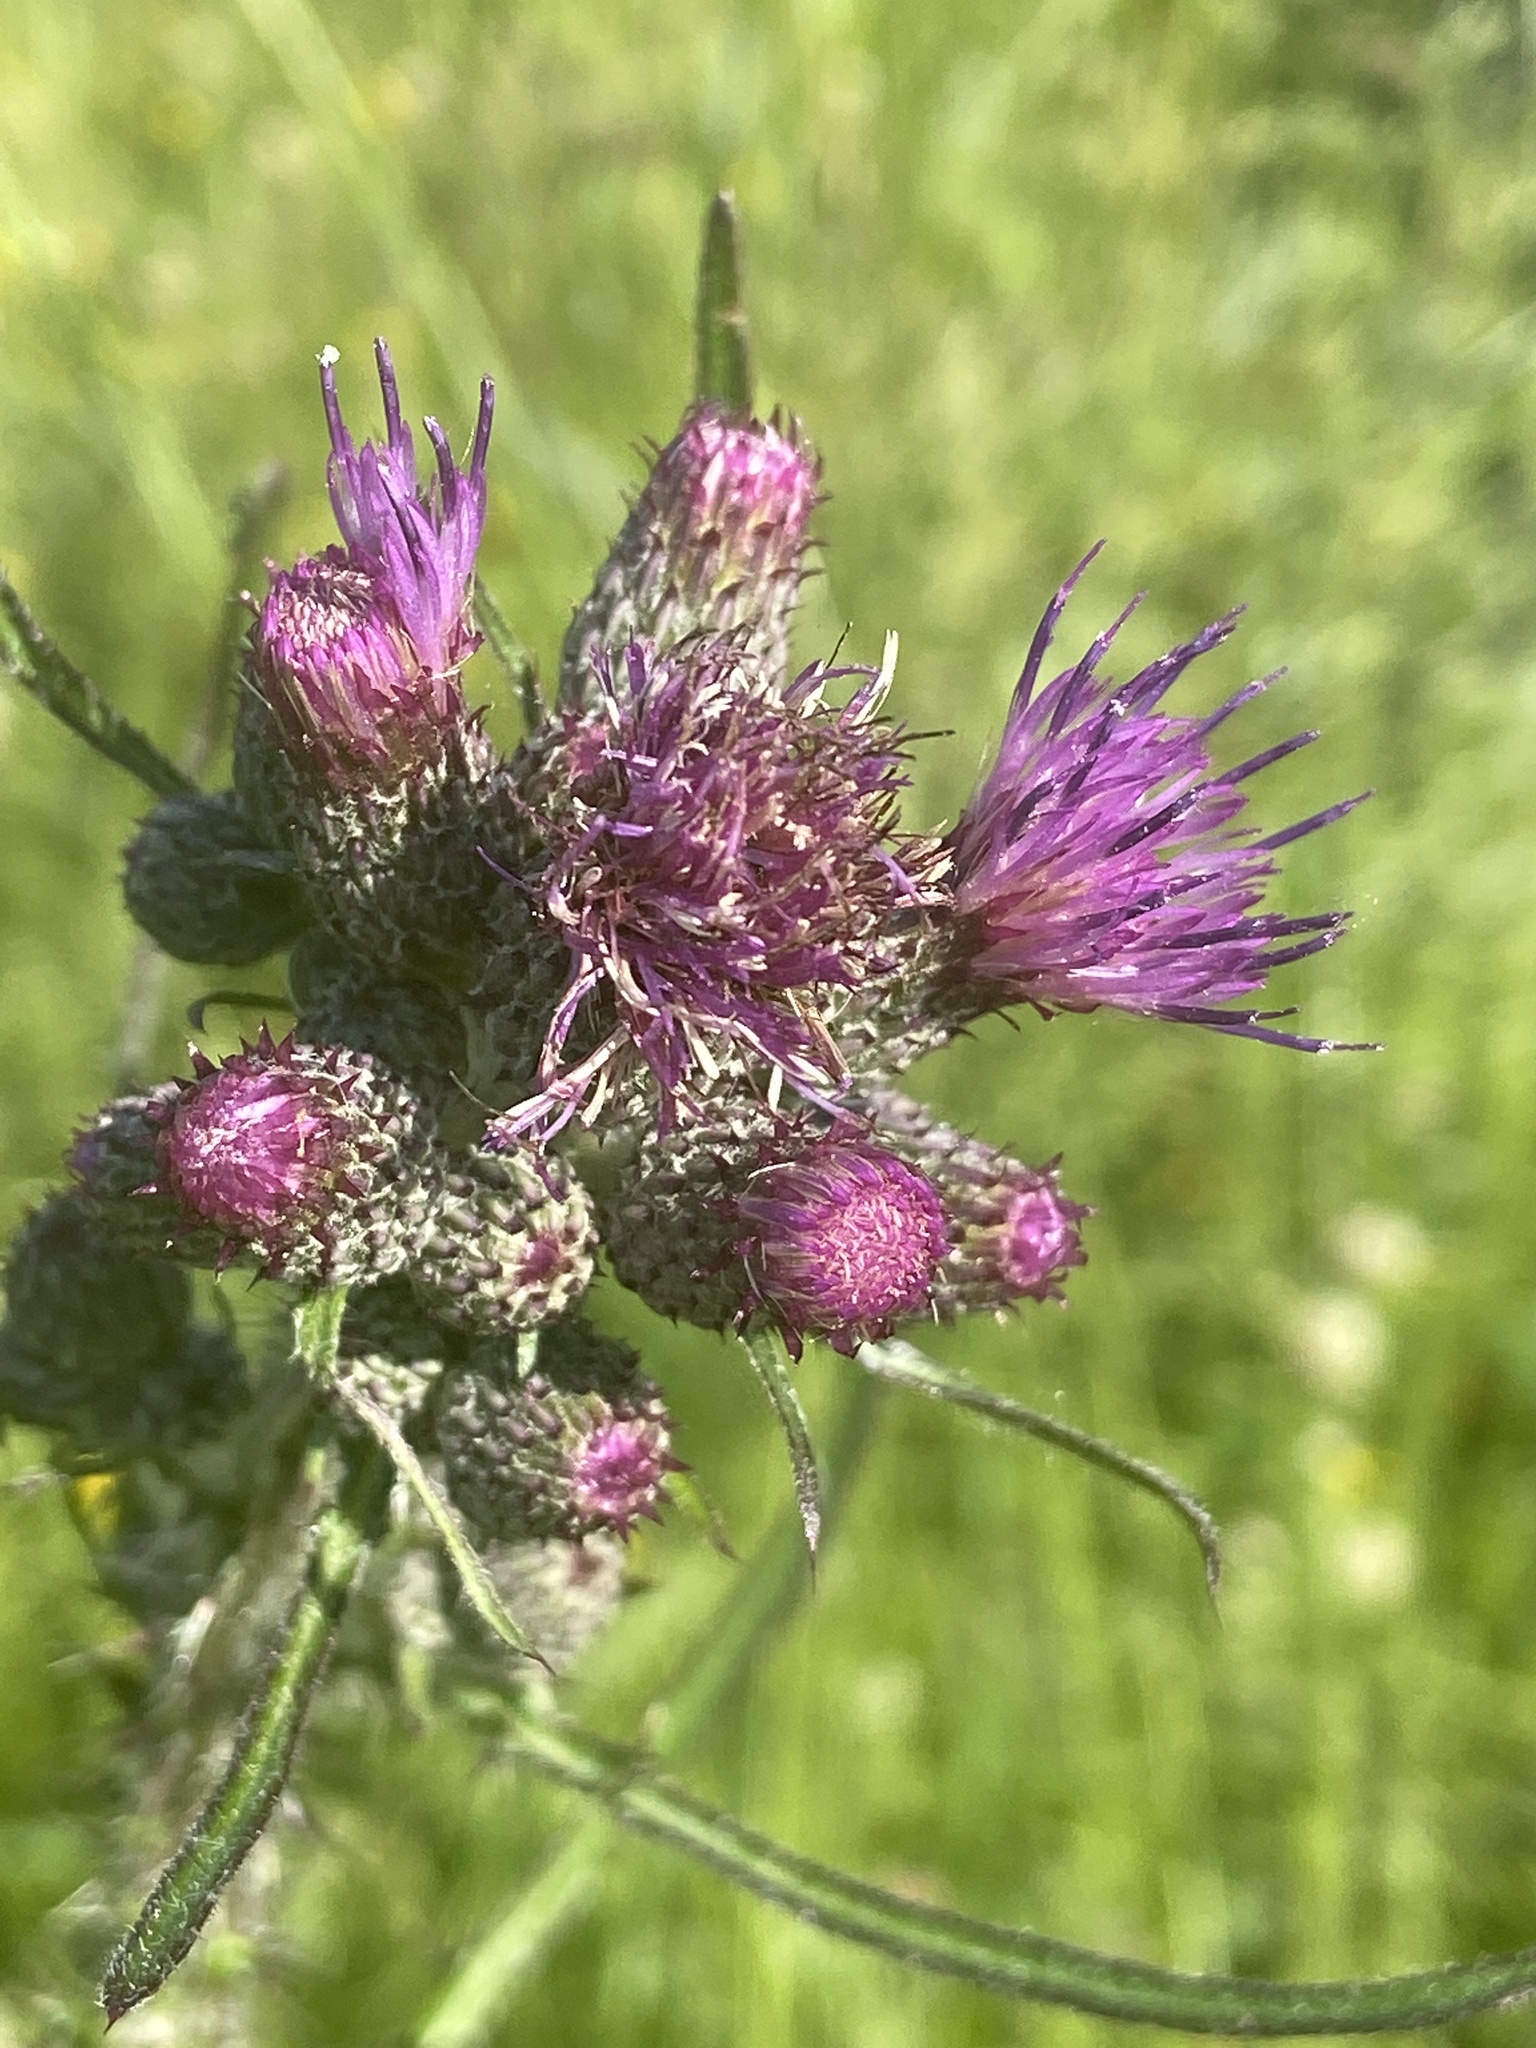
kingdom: Plantae
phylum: Tracheophyta
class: Magnoliopsida
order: Asterales
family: Asteraceae
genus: Cirsium
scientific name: Cirsium palustre
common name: Marsh thistle
